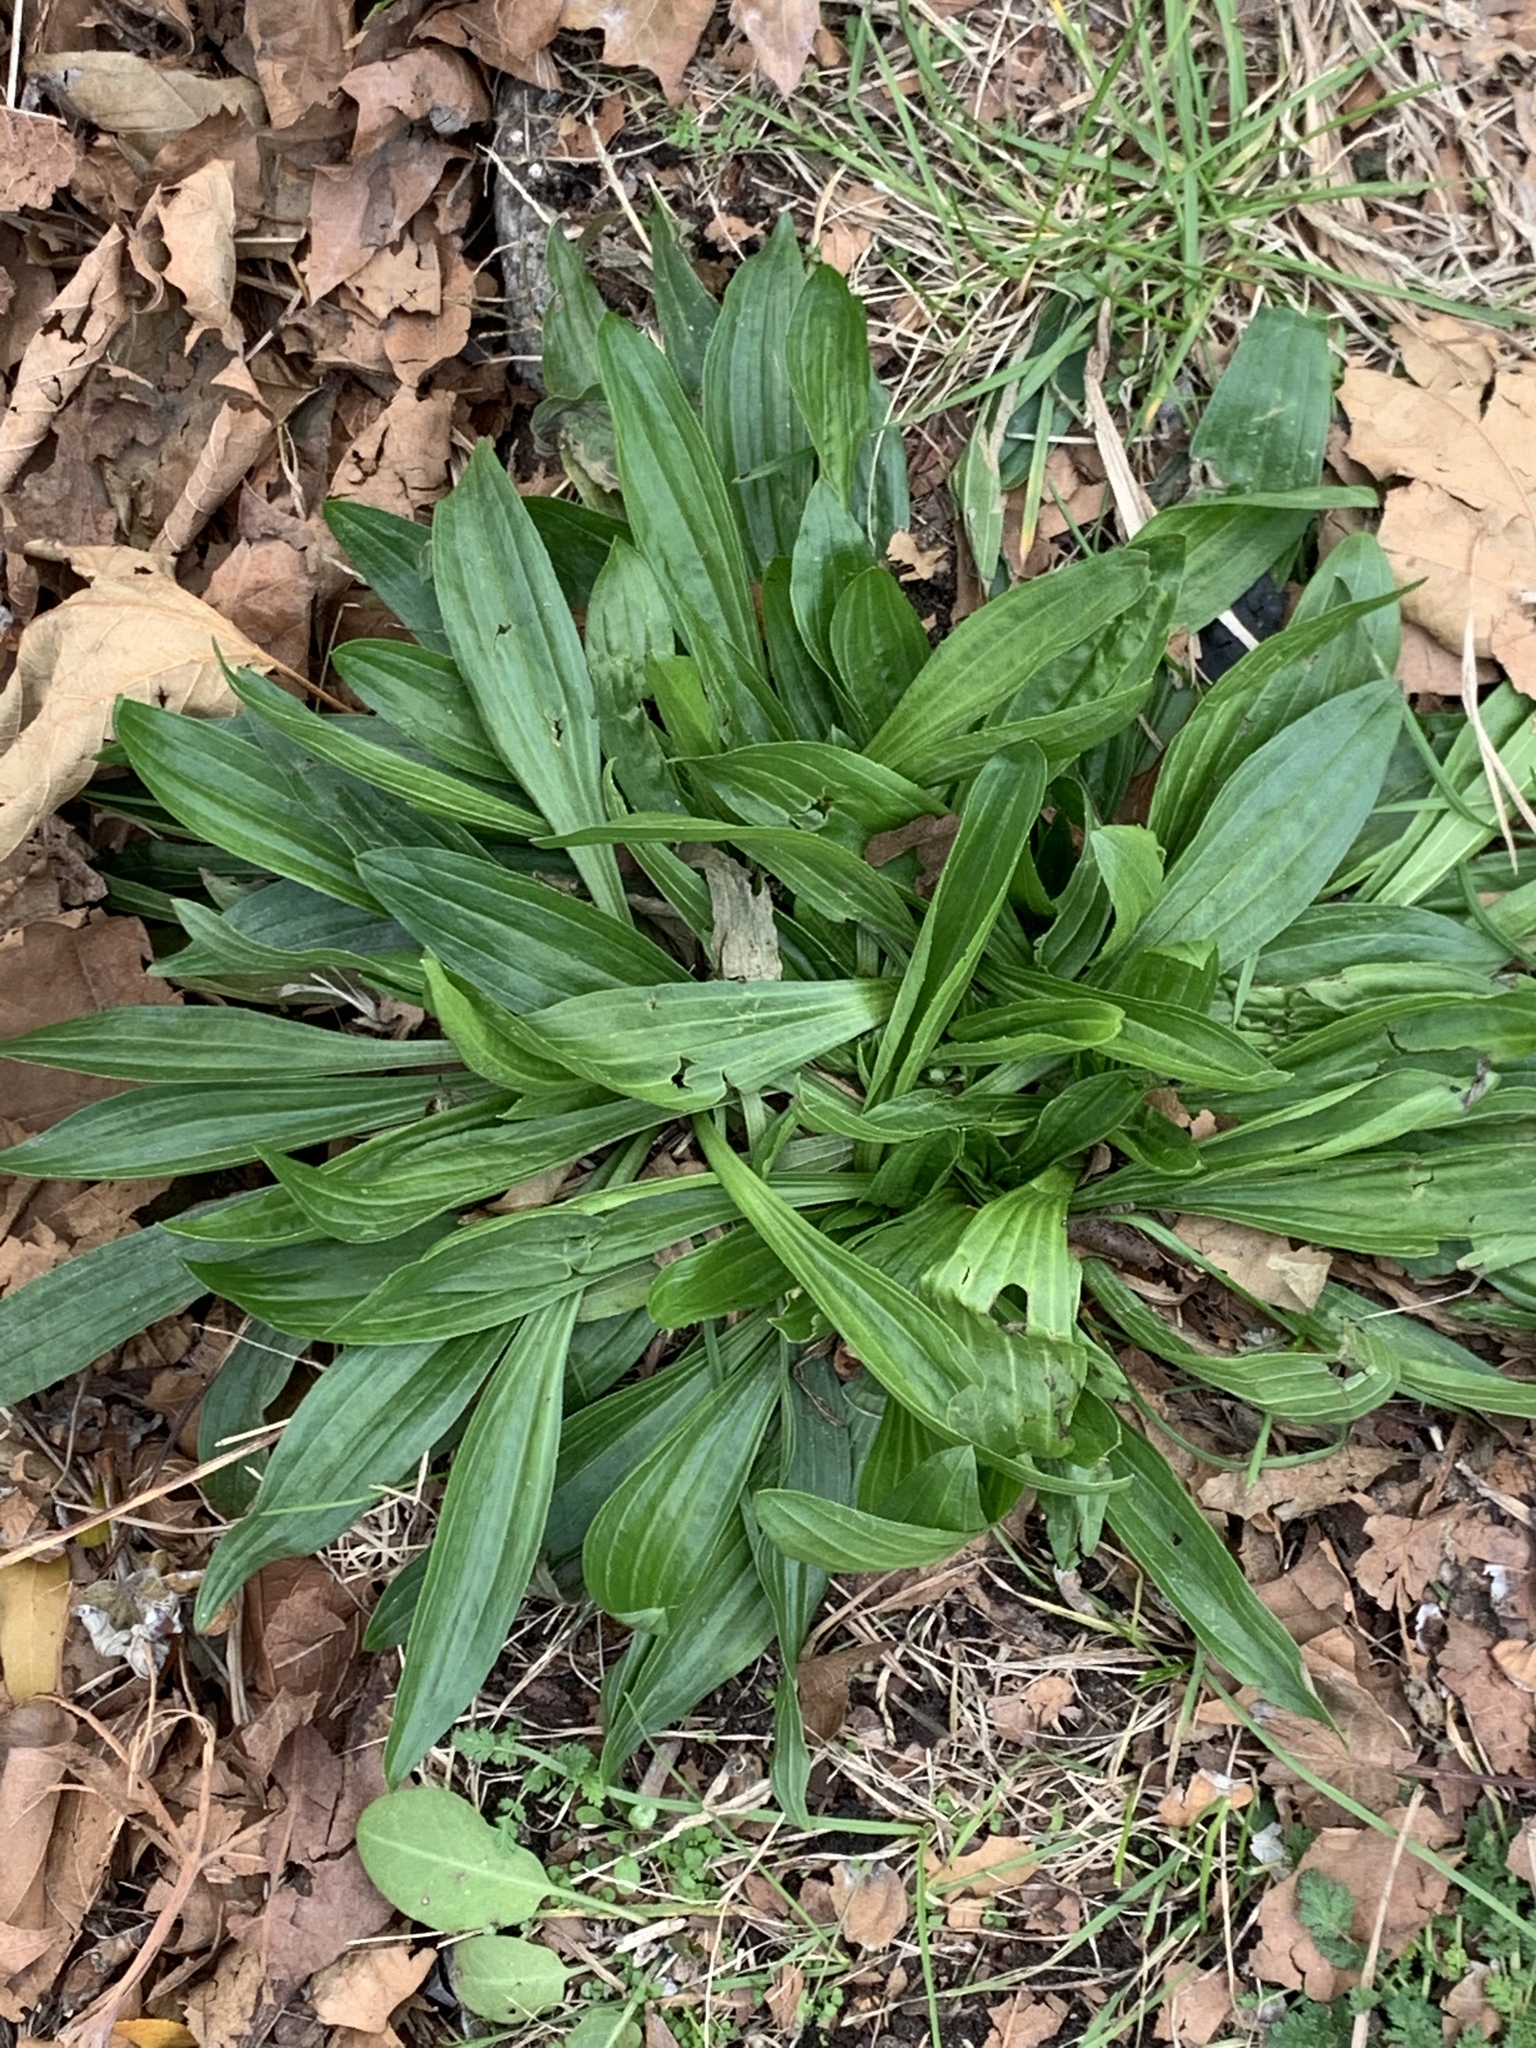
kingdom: Plantae
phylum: Tracheophyta
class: Magnoliopsida
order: Lamiales
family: Plantaginaceae
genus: Plantago
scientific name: Plantago lanceolata
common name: Ribwort plantain
